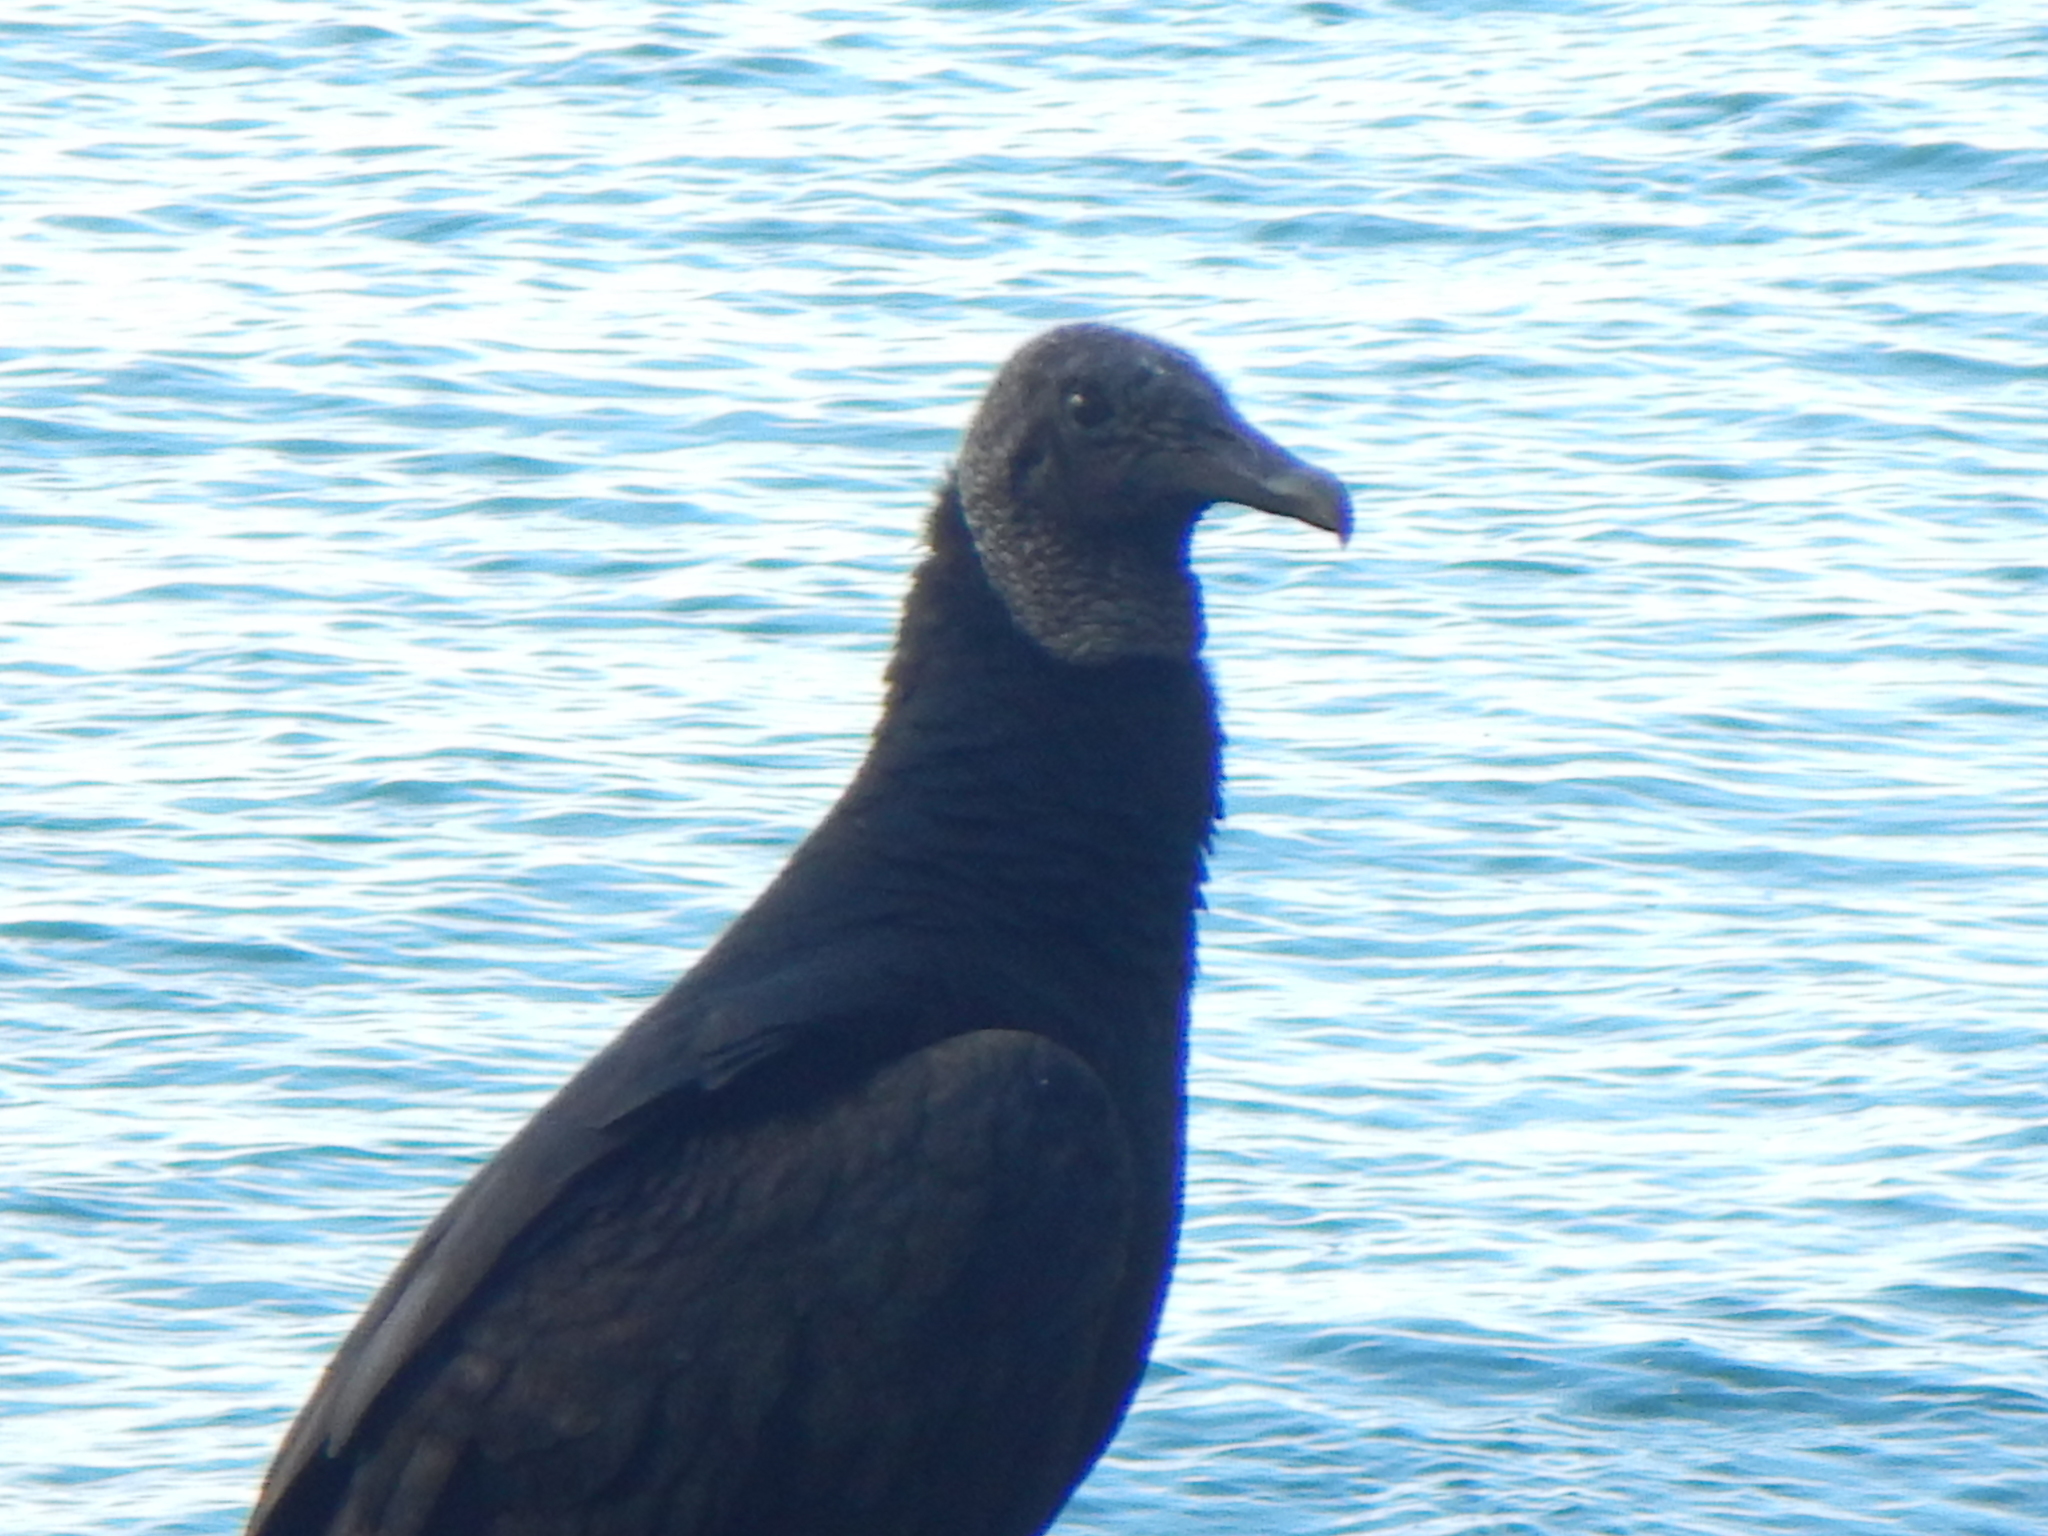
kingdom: Animalia
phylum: Chordata
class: Aves
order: Accipitriformes
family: Cathartidae
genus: Coragyps
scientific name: Coragyps atratus
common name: Black vulture
